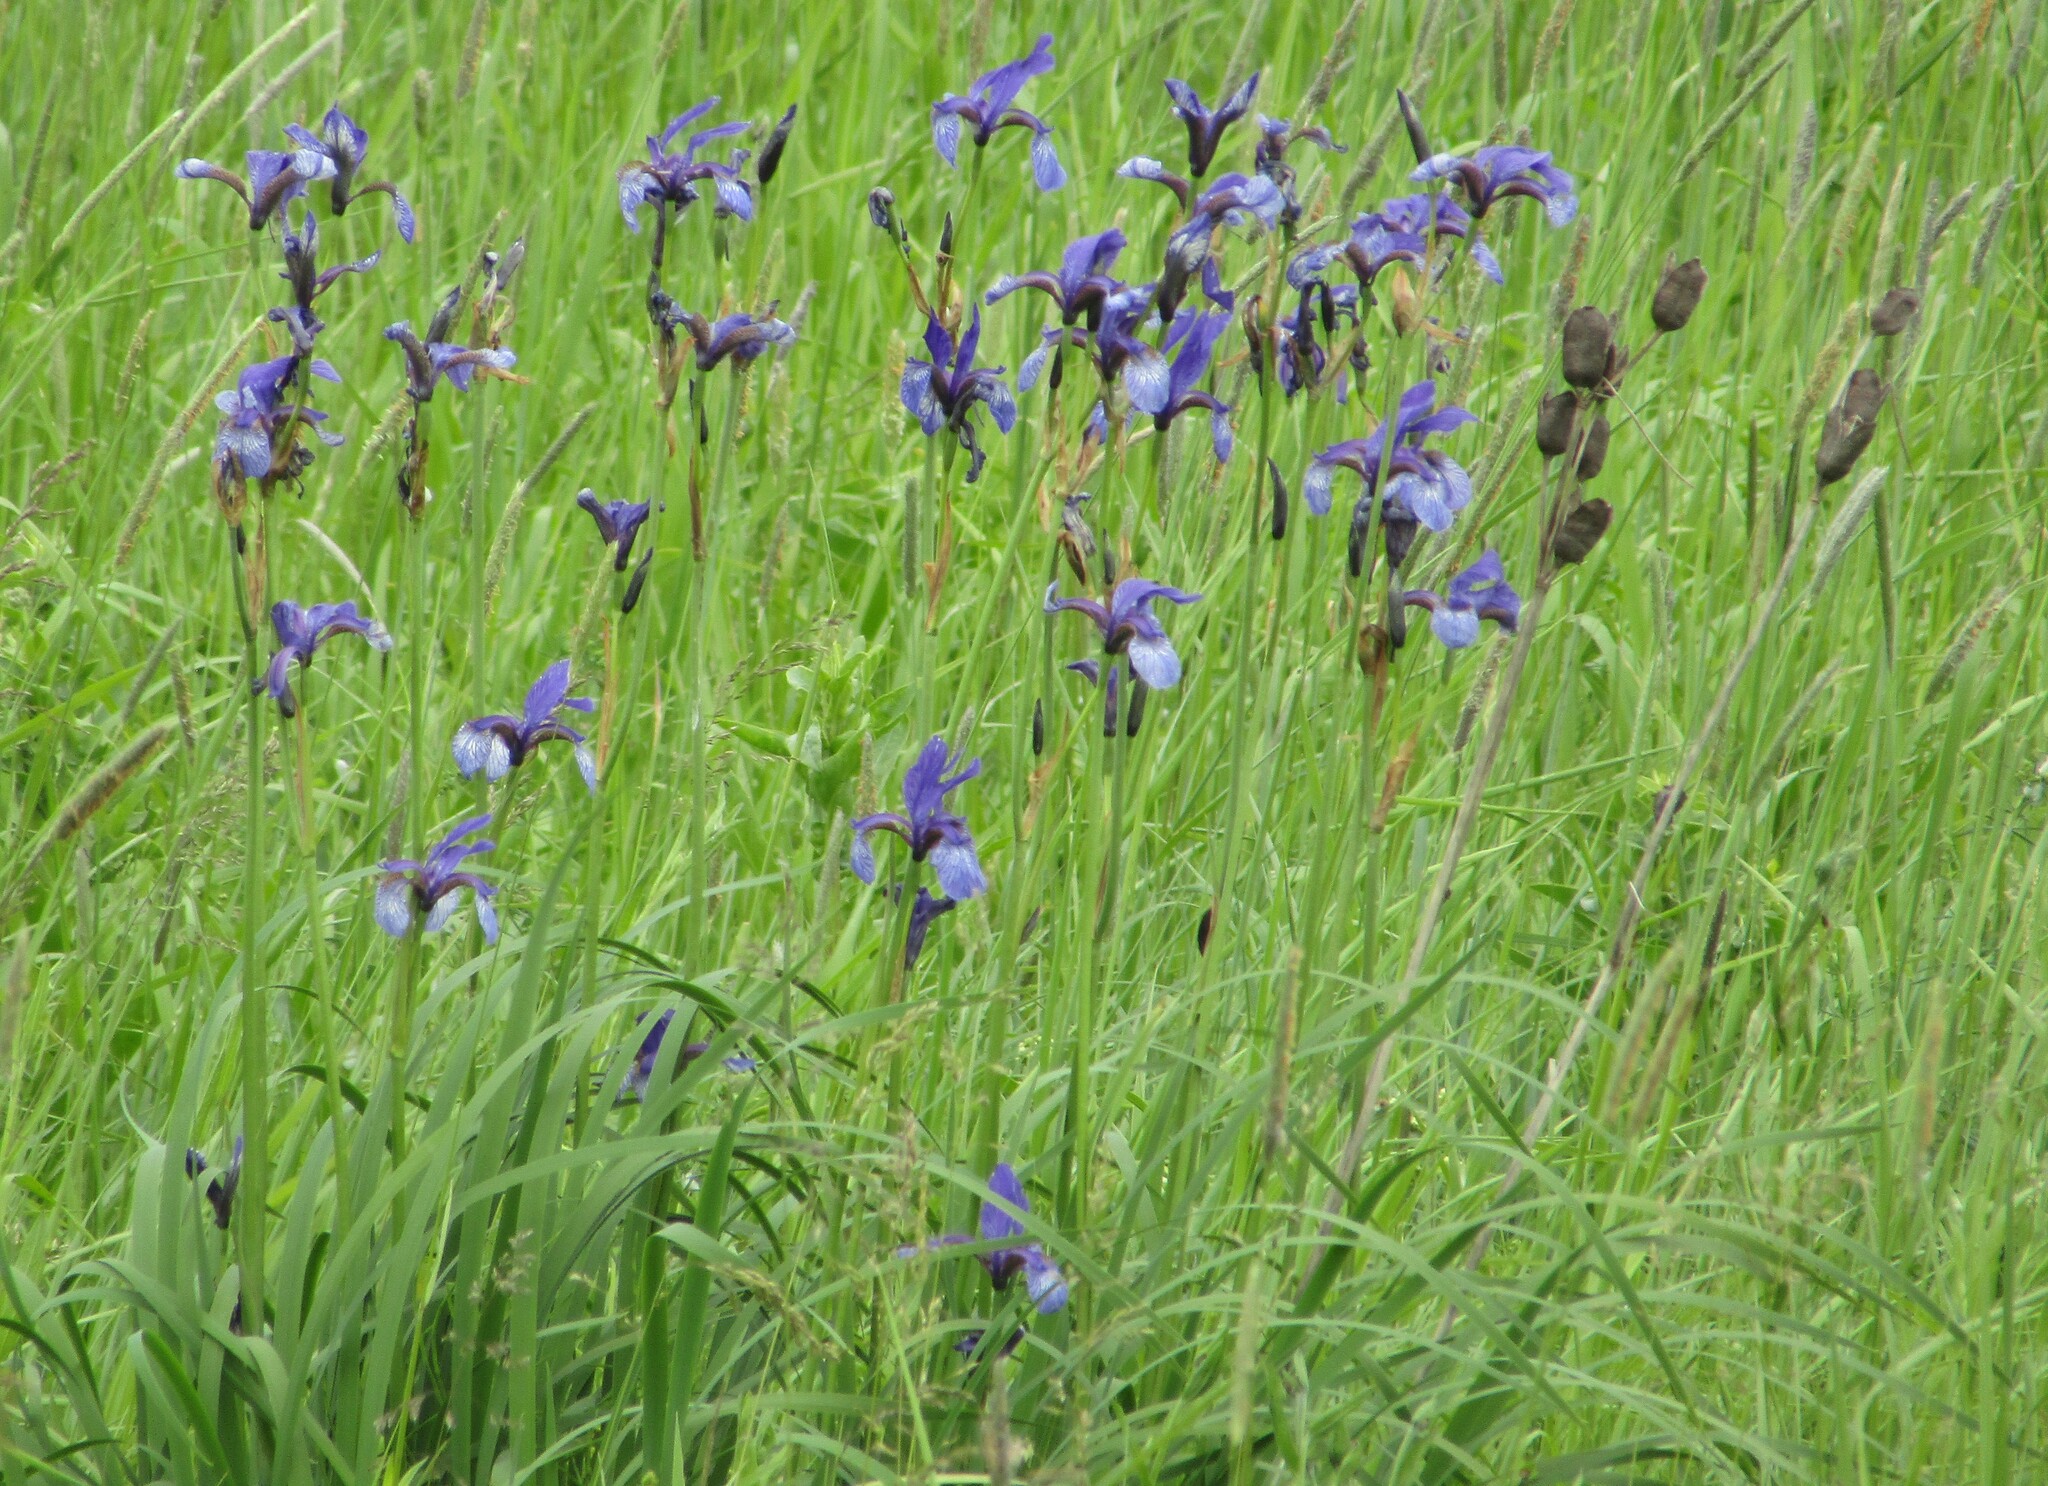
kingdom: Plantae
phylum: Tracheophyta
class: Liliopsida
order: Asparagales
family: Iridaceae
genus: Iris
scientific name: Iris sibirica
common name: Siberian iris
